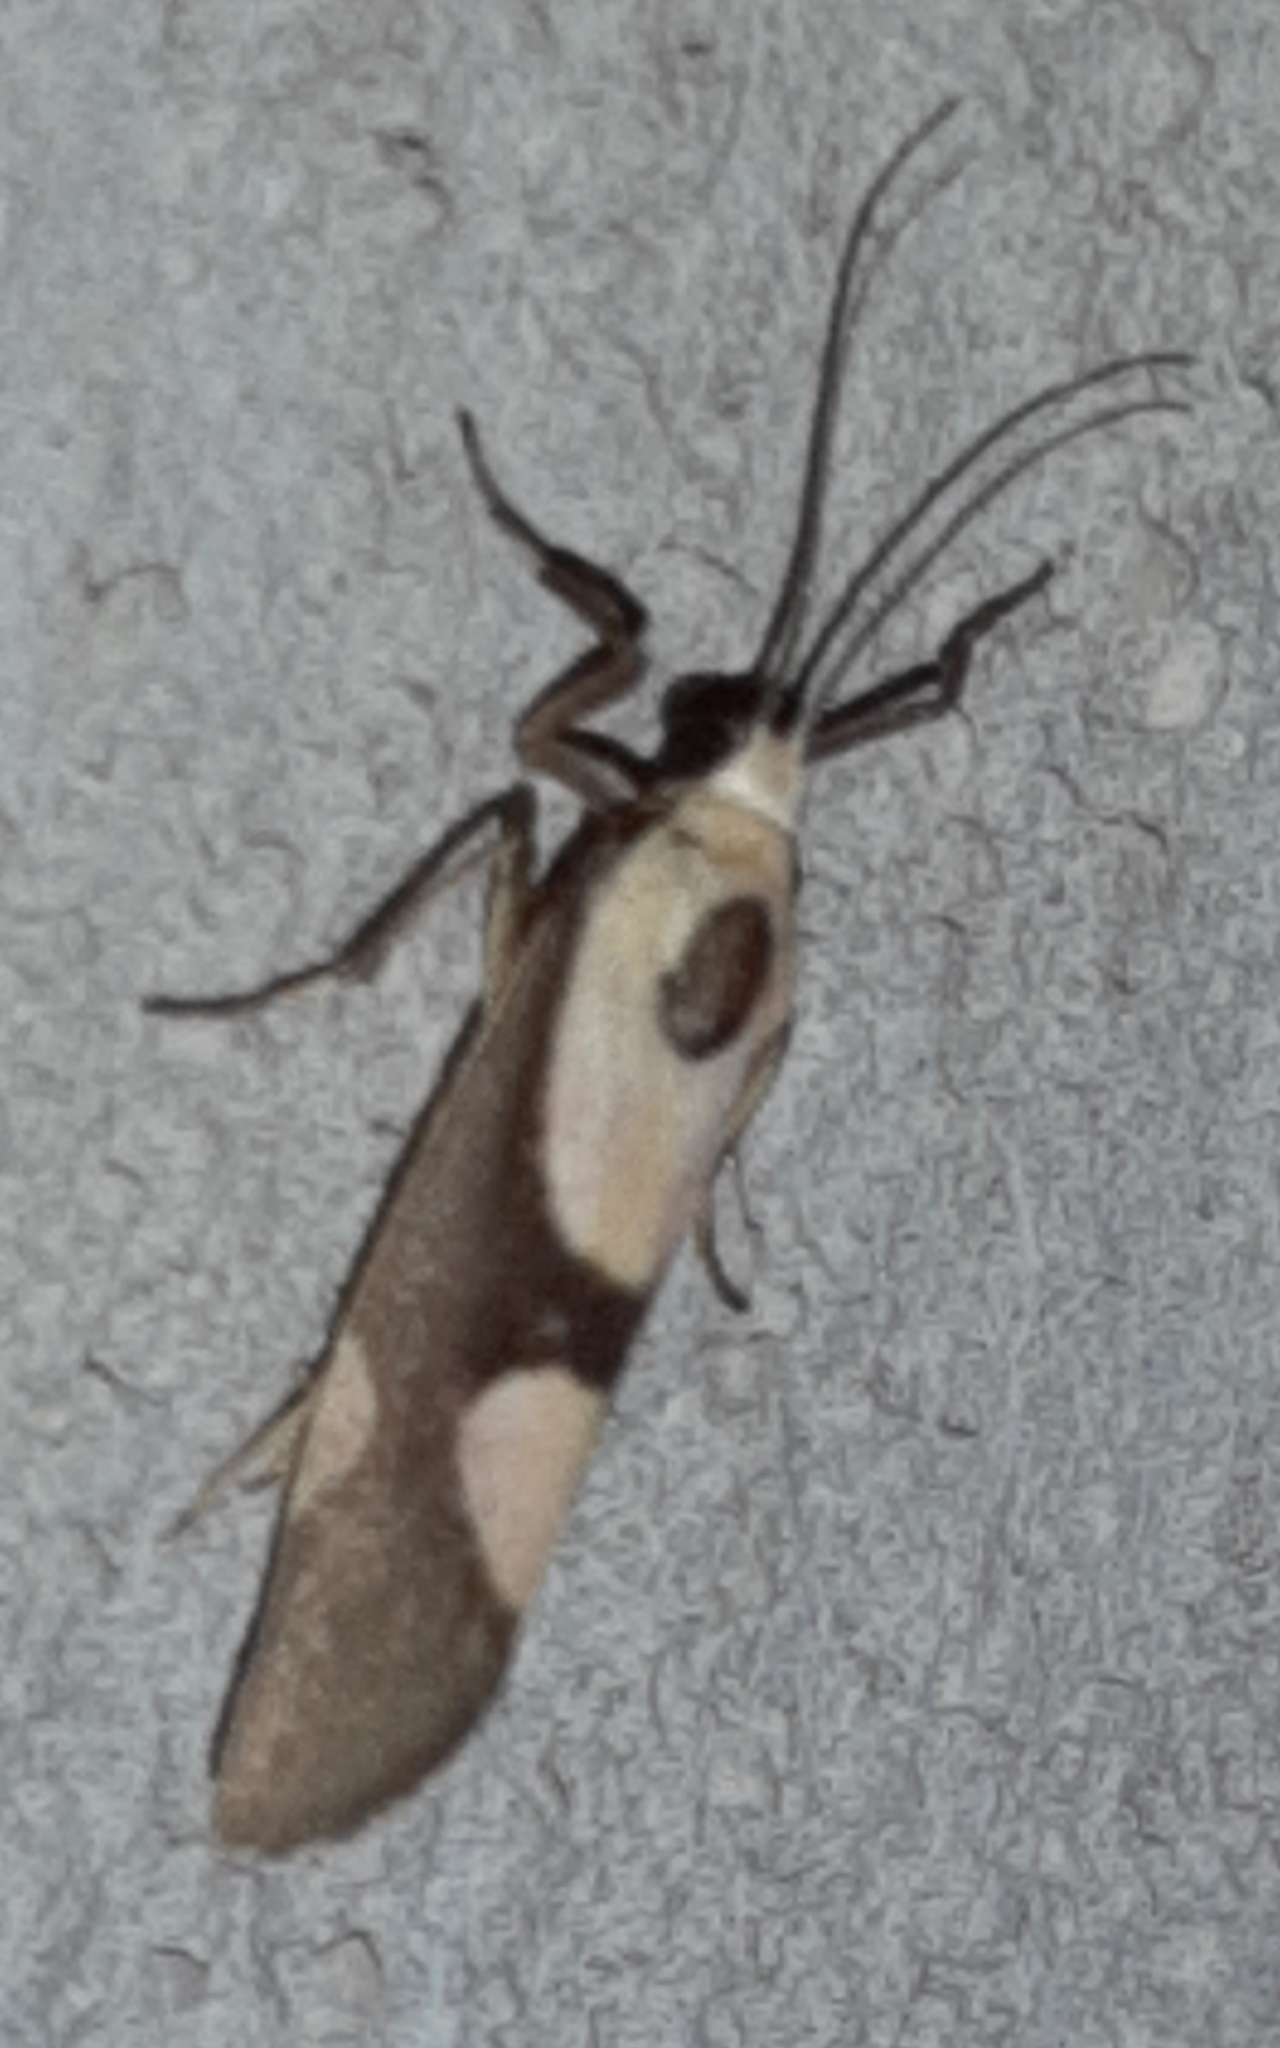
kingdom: Animalia
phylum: Arthropoda
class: Insecta
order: Lepidoptera
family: Erebidae
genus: Cisthene
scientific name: Cisthene polyzona
